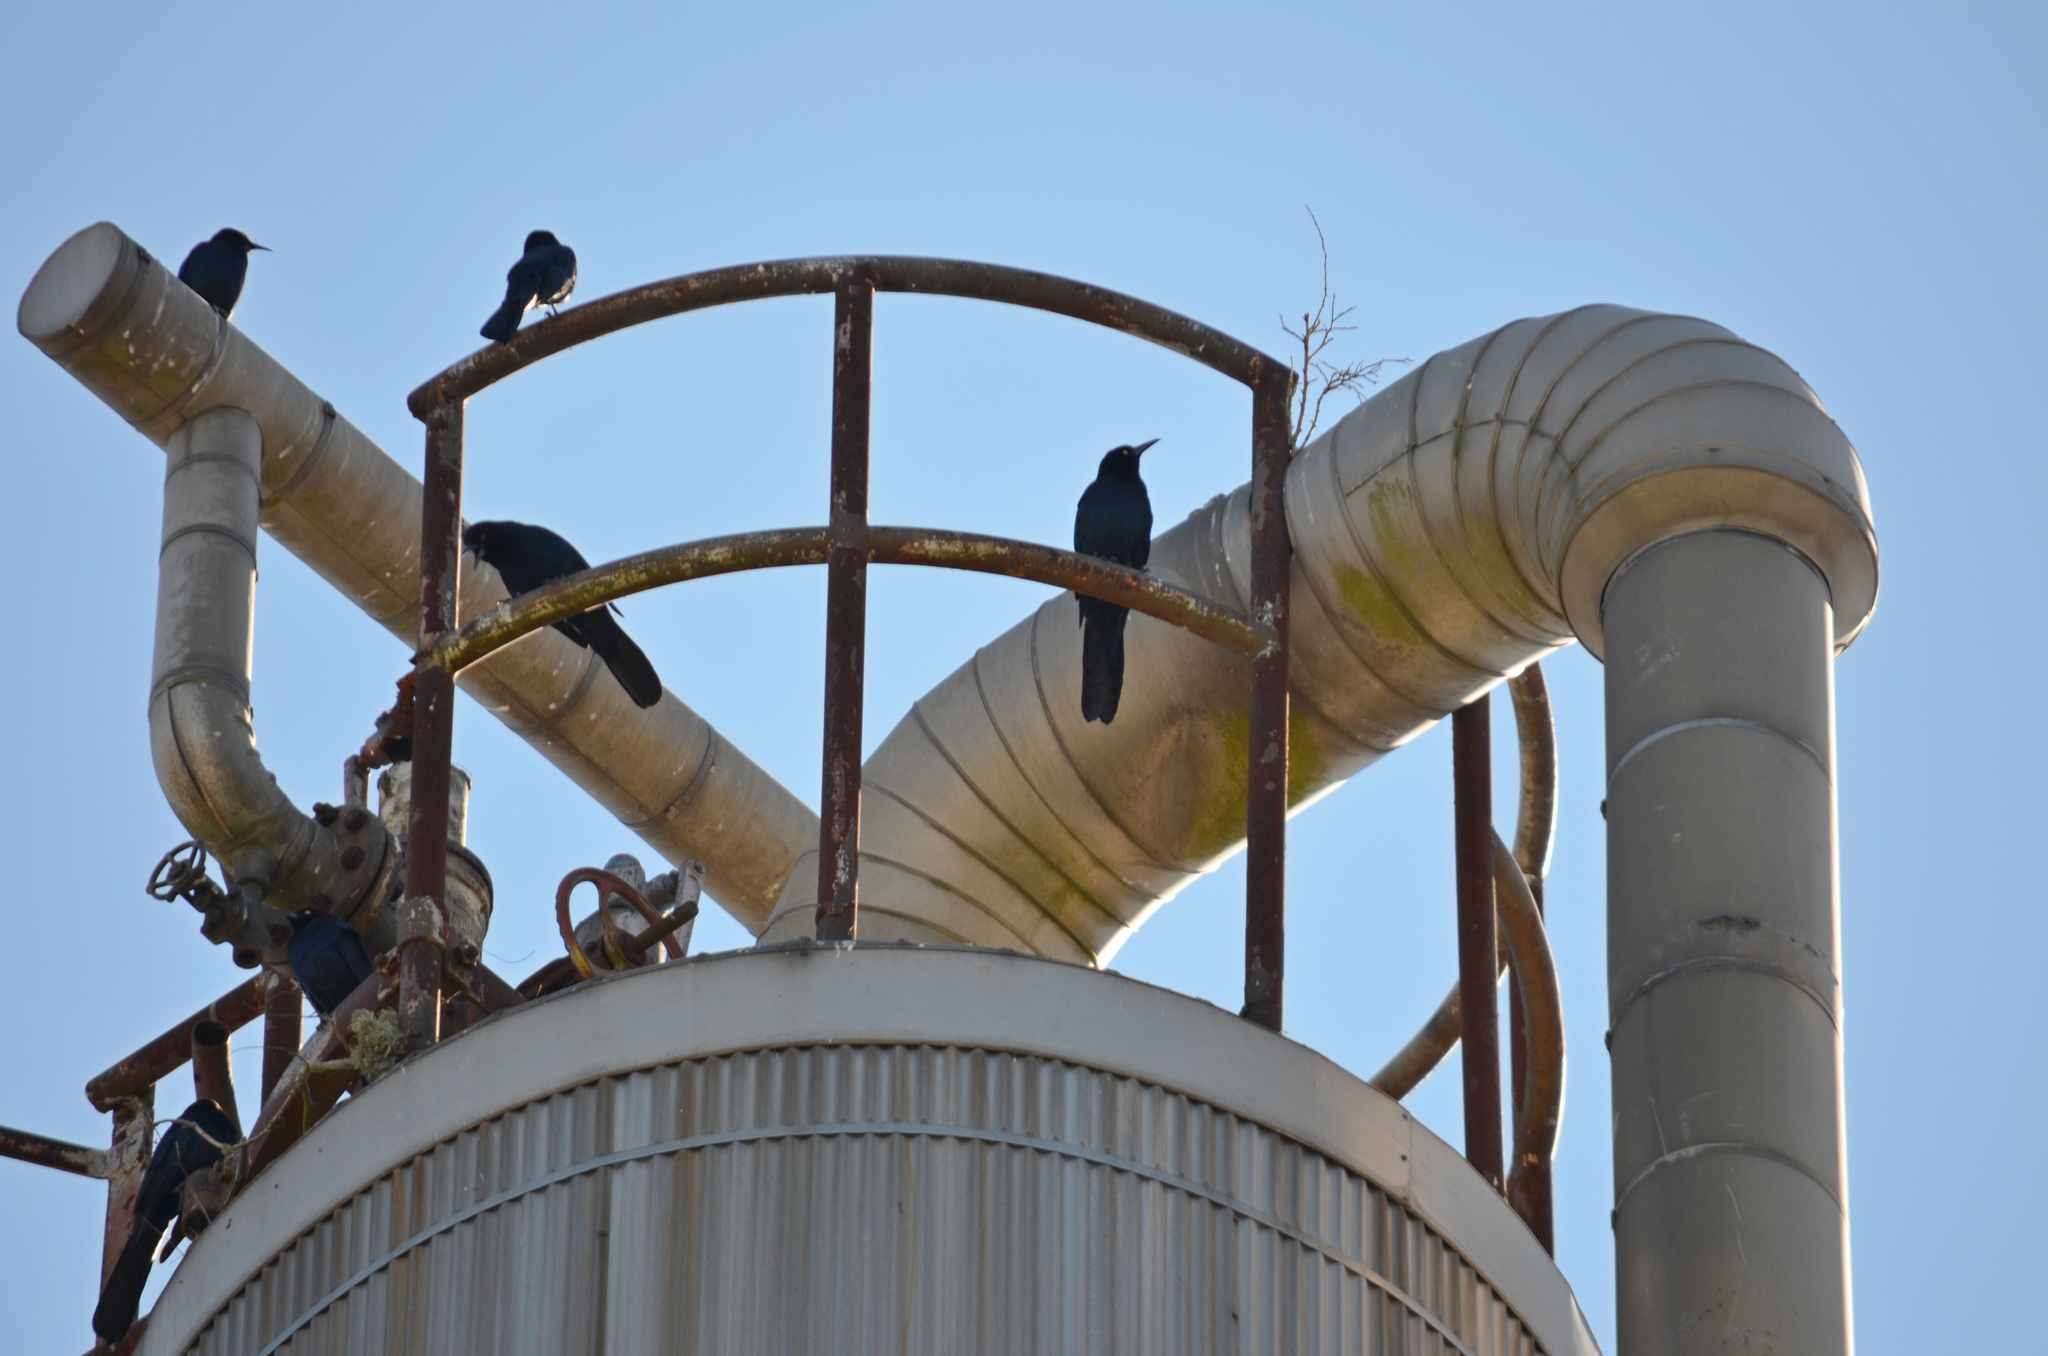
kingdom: Animalia
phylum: Chordata
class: Aves
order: Passeriformes
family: Icteridae
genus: Quiscalus
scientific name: Quiscalus mexicanus
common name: Great-tailed grackle
